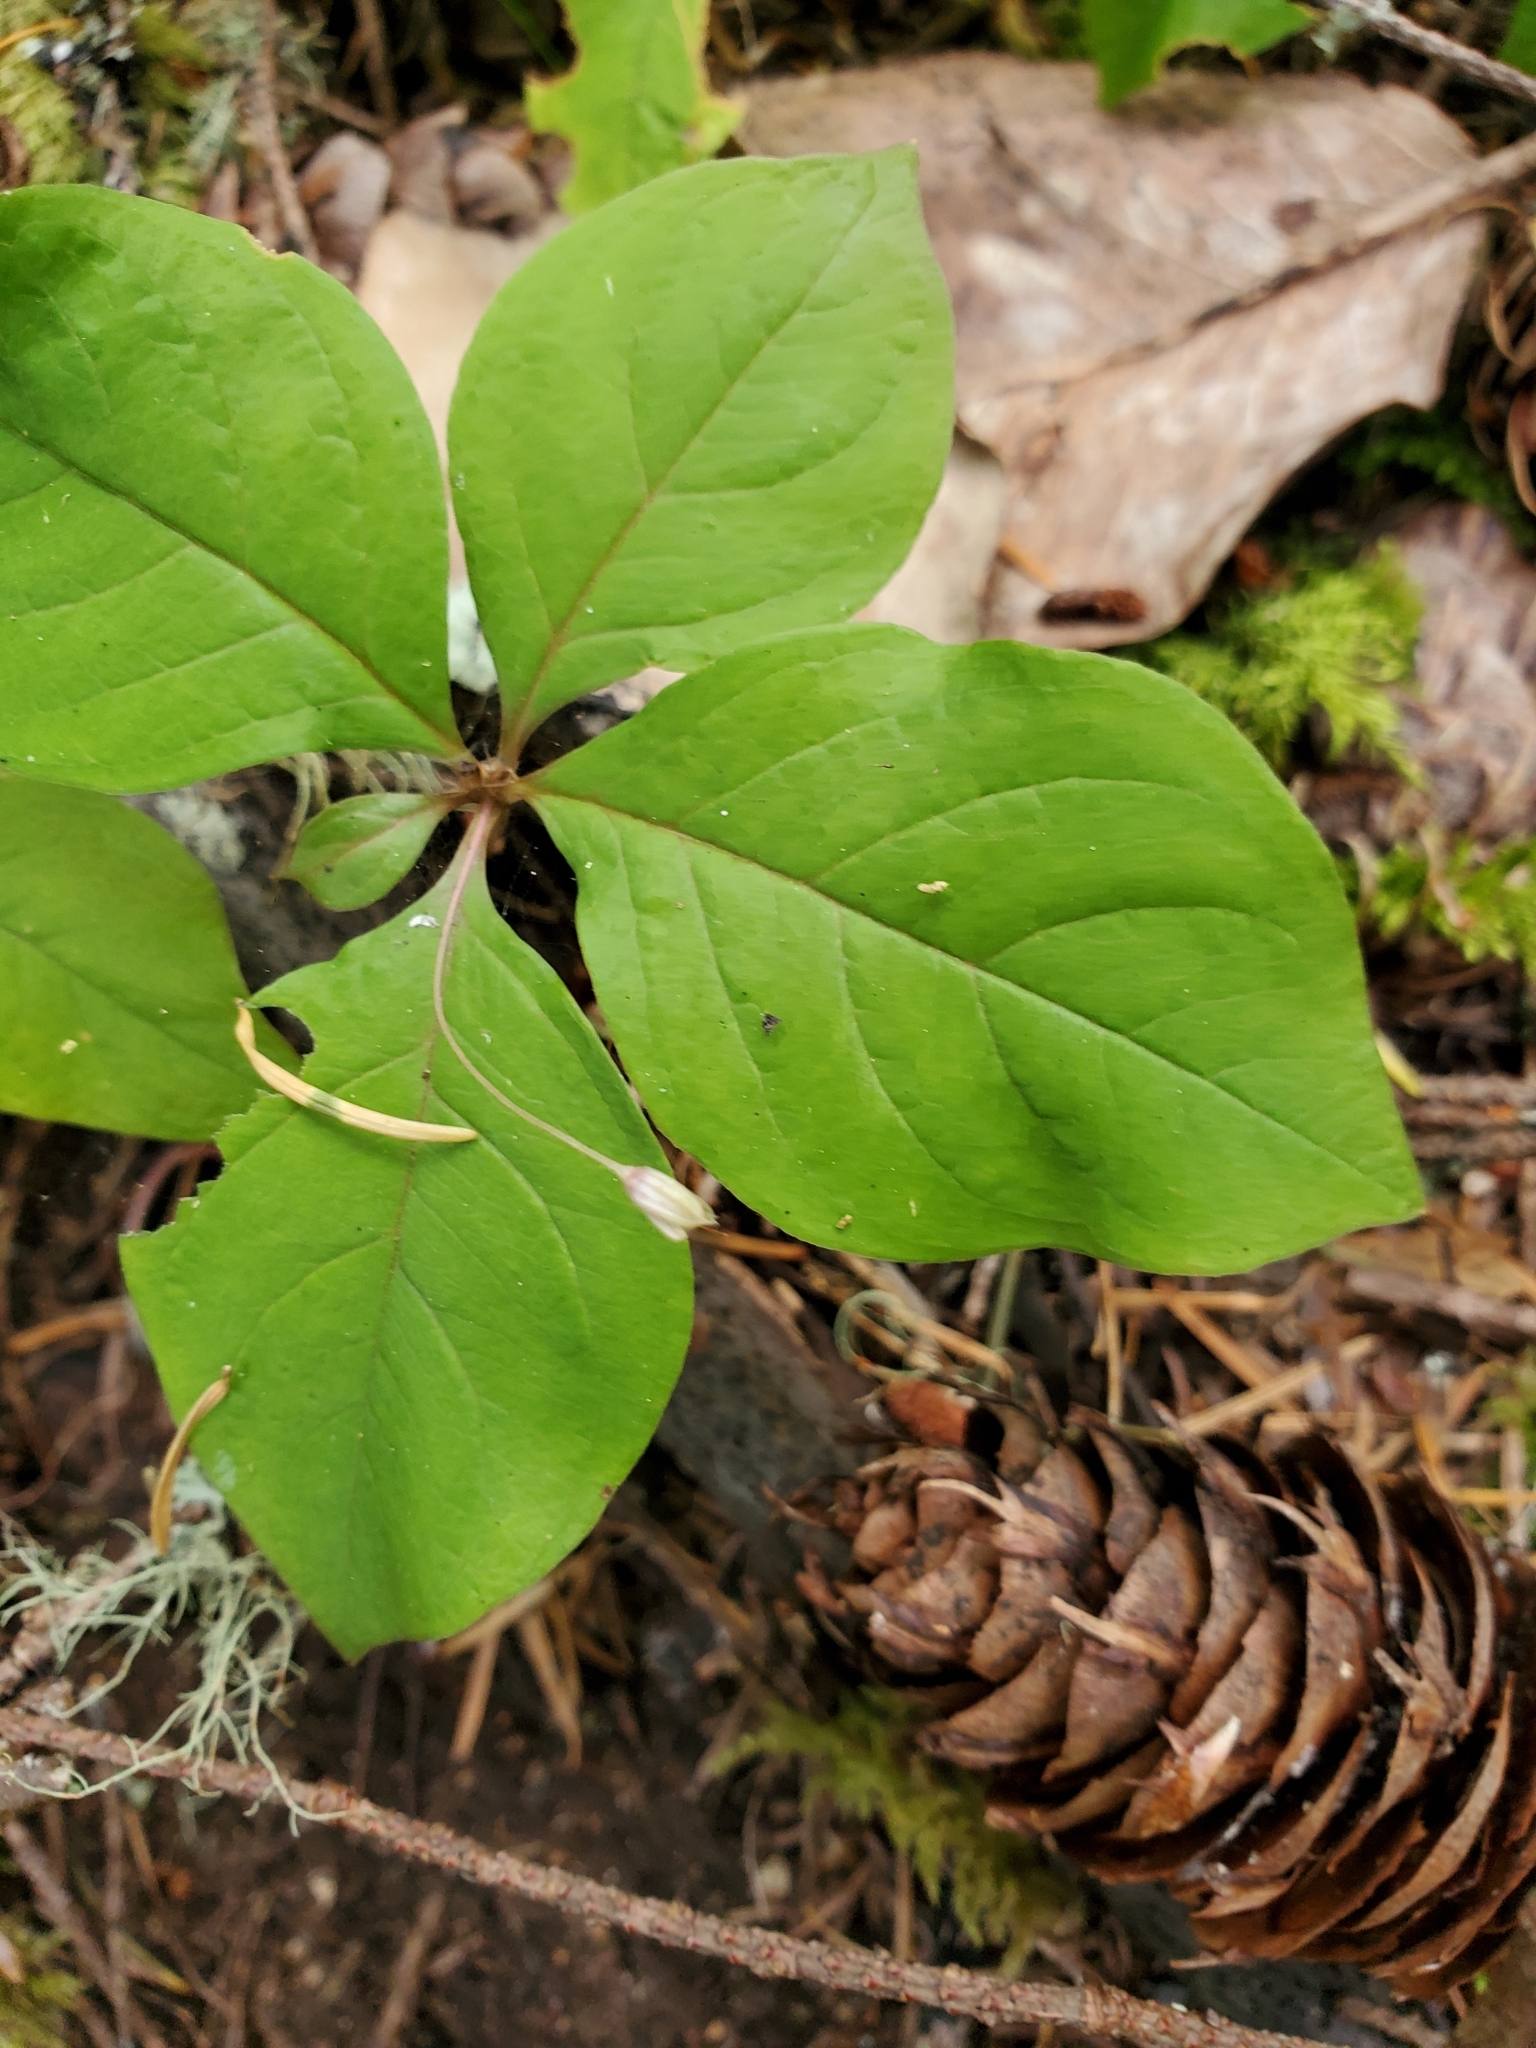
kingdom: Plantae
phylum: Tracheophyta
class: Magnoliopsida
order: Ericales
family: Primulaceae
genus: Lysimachia
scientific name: Lysimachia latifolia
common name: Pacific starflower
